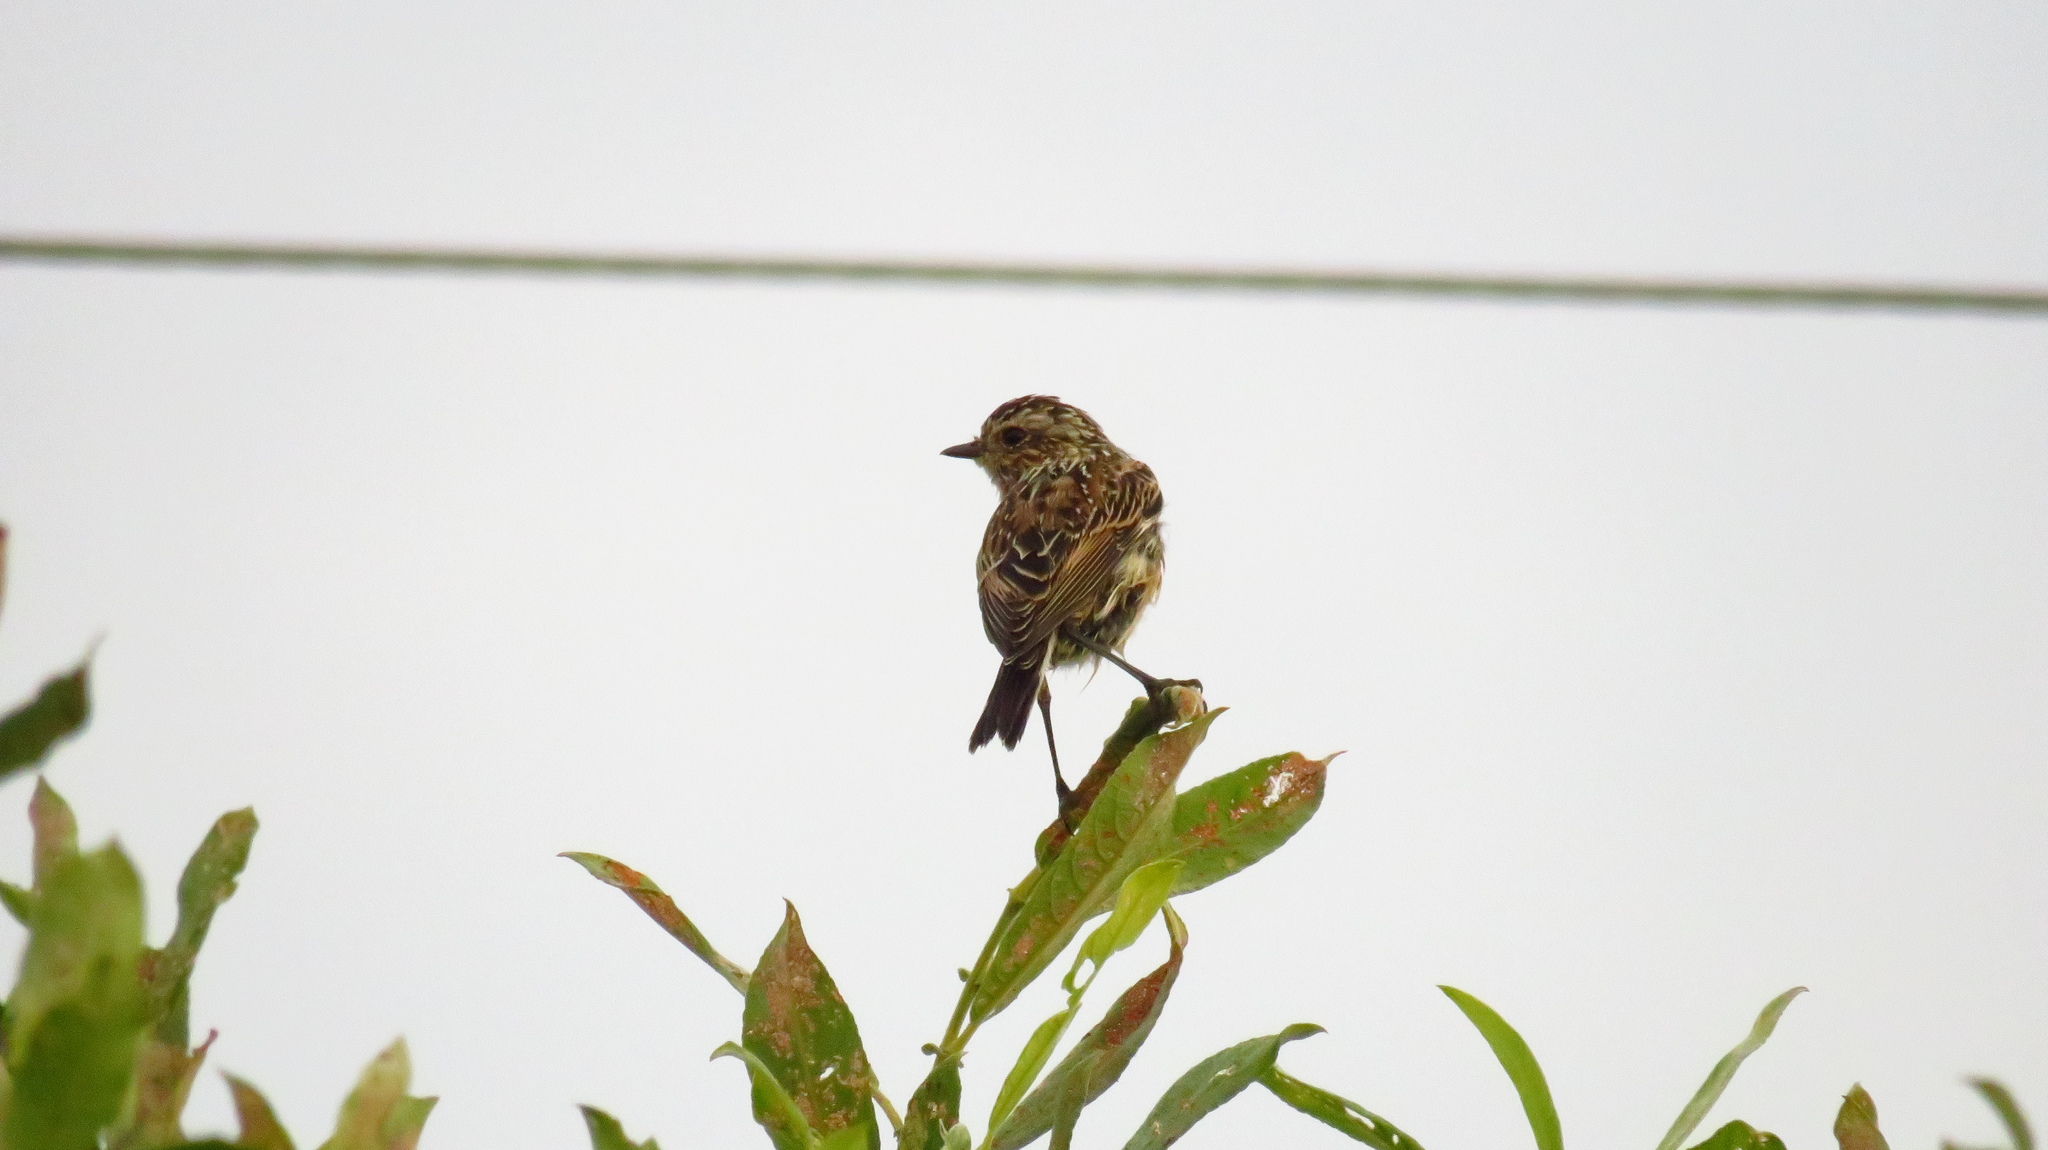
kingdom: Animalia
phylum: Chordata
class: Aves
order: Passeriformes
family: Muscicapidae
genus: Saxicola
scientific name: Saxicola rubetra
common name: Whinchat
